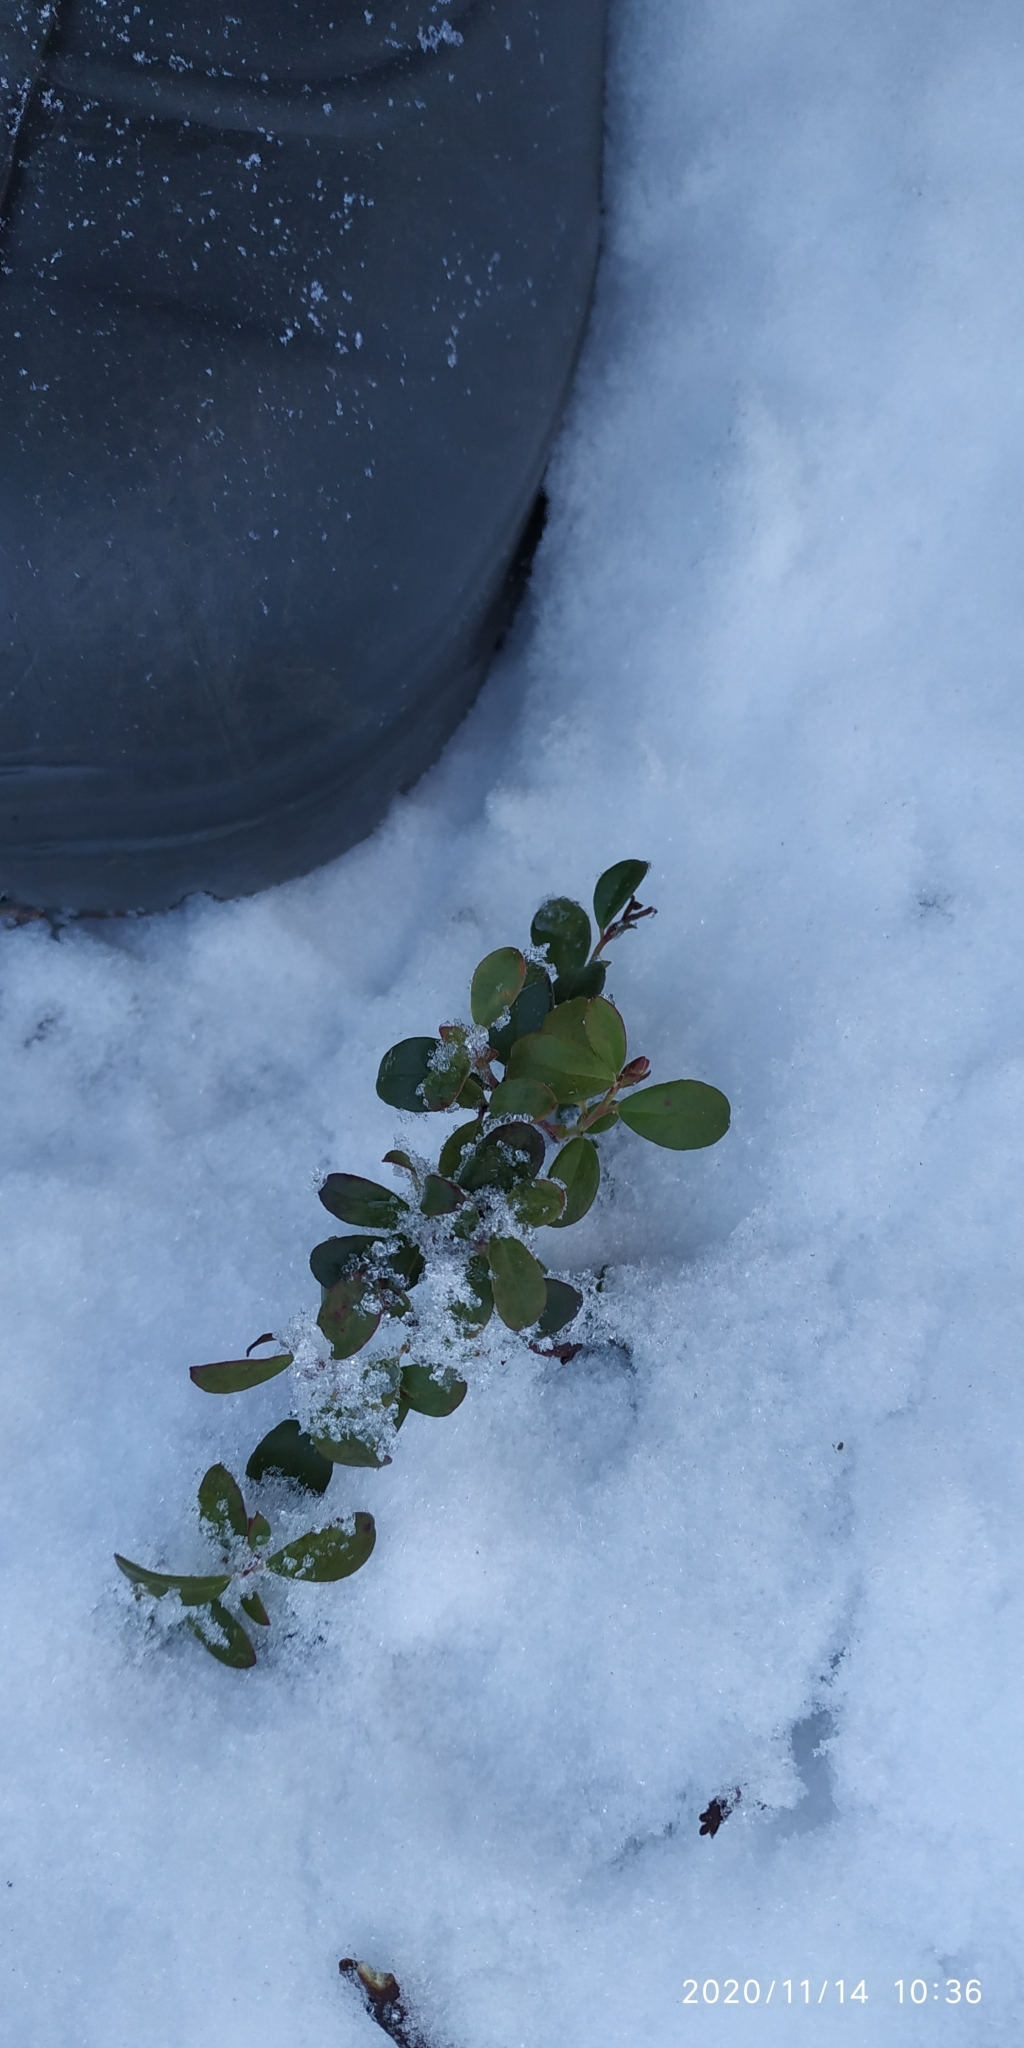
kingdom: Plantae
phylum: Tracheophyta
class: Magnoliopsida
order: Ericales
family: Ericaceae
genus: Vaccinium
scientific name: Vaccinium vitis-idaea
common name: Cowberry
